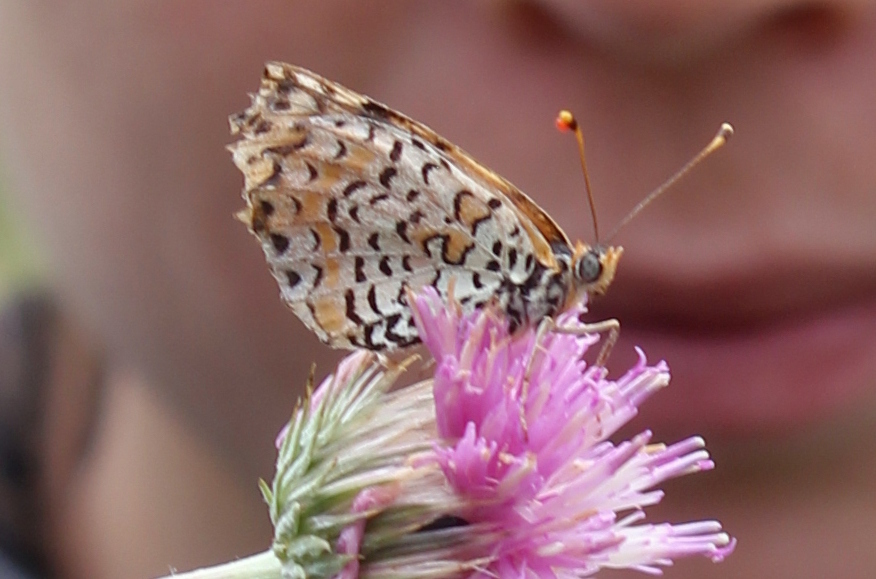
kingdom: Animalia
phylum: Arthropoda
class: Insecta
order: Lepidoptera
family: Nymphalidae
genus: Melitaea
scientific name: Melitaea didyma
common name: Spotted fritillary
